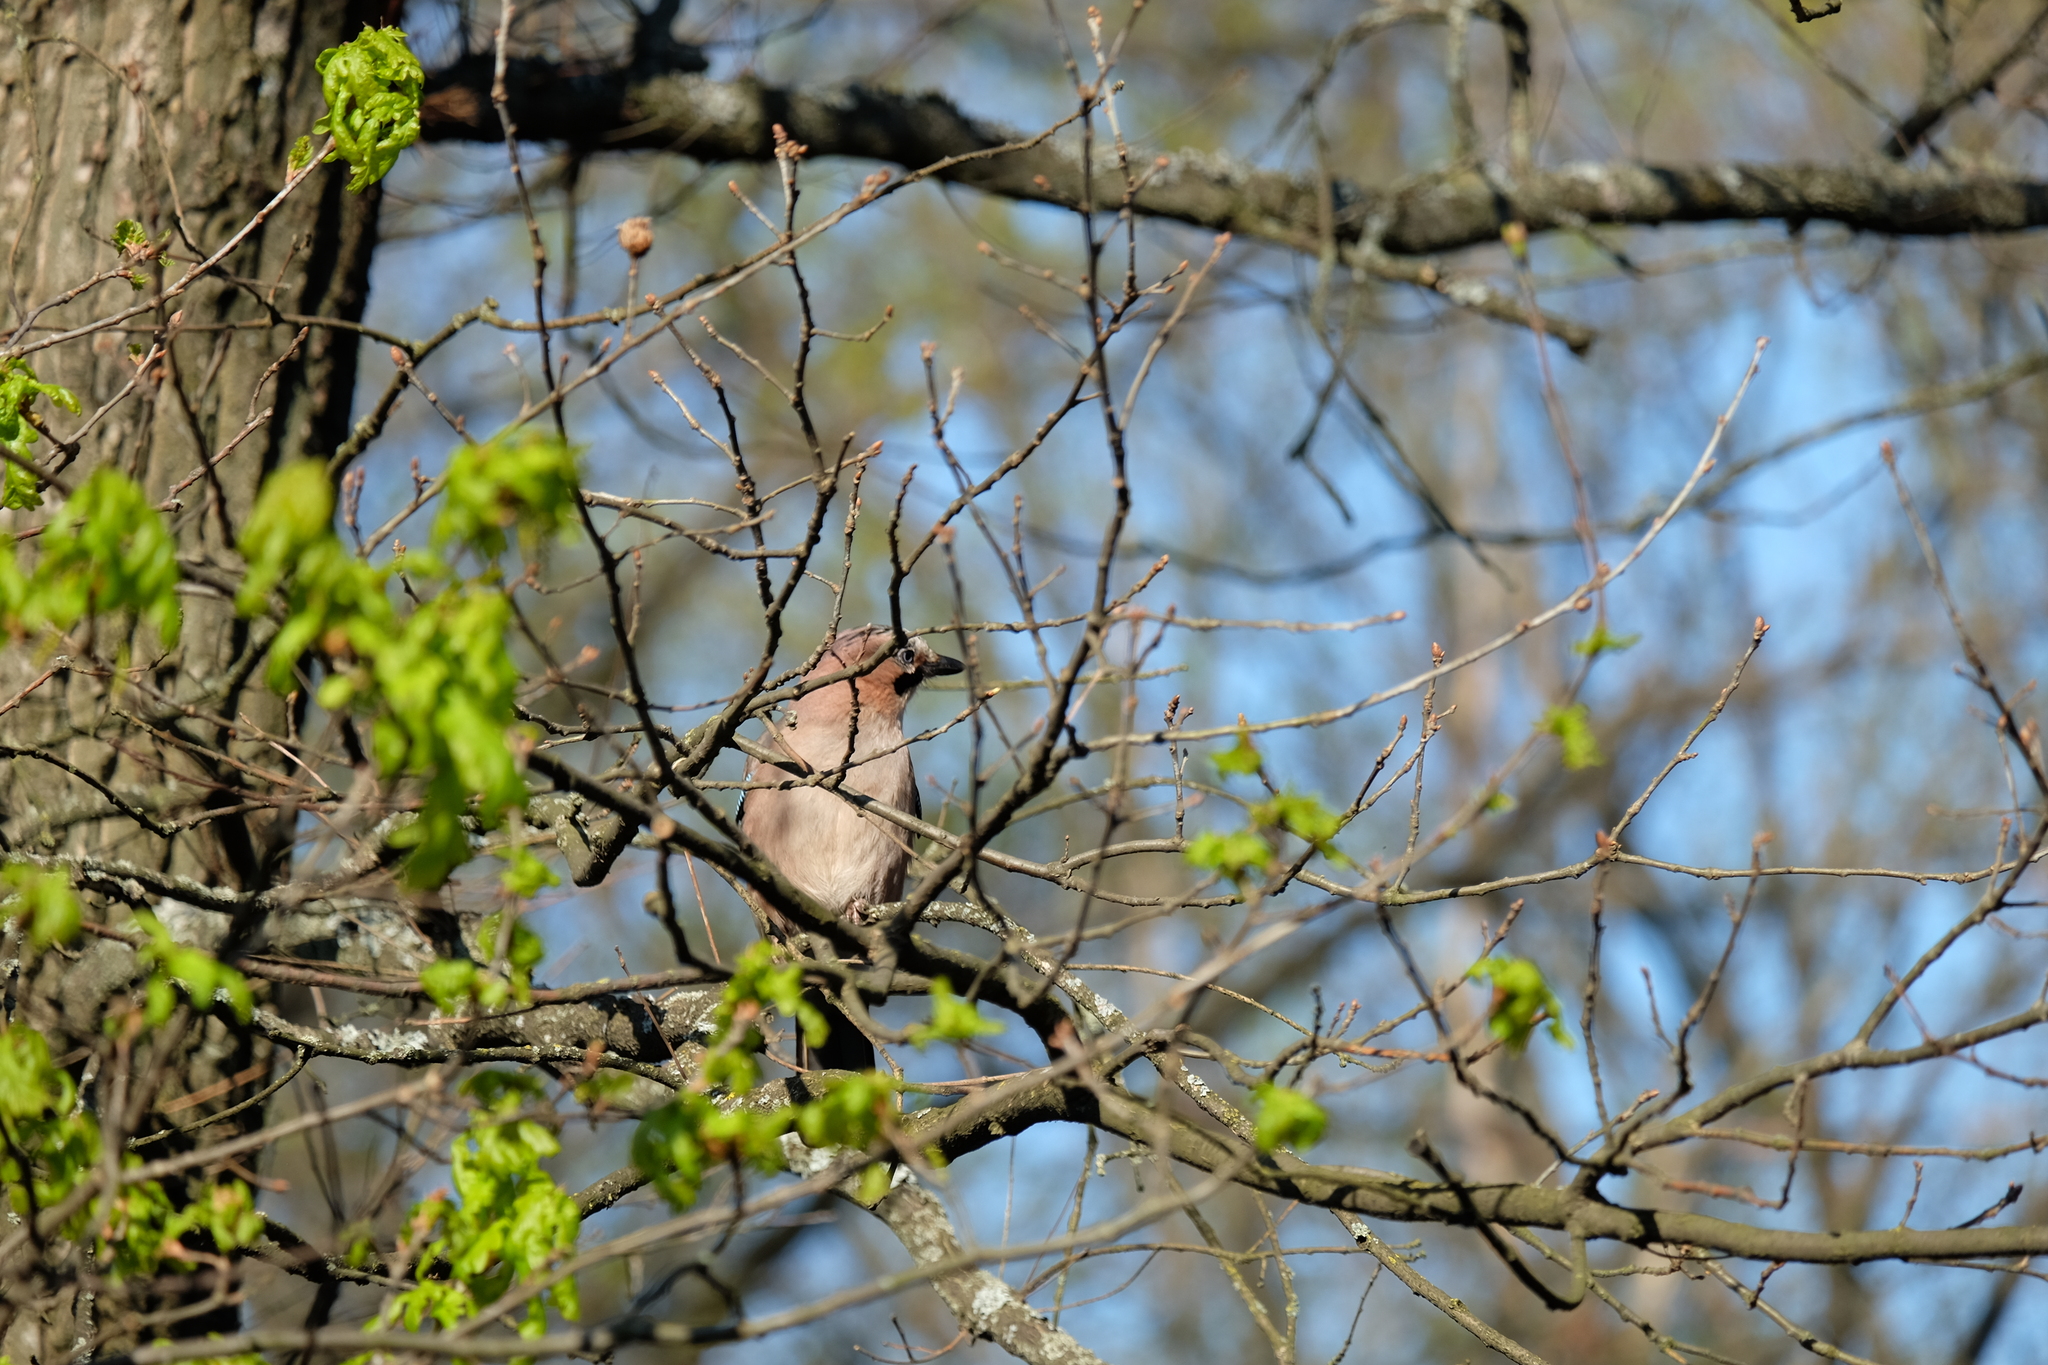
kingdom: Animalia
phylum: Chordata
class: Aves
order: Passeriformes
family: Corvidae
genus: Garrulus
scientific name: Garrulus glandarius
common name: Eurasian jay
